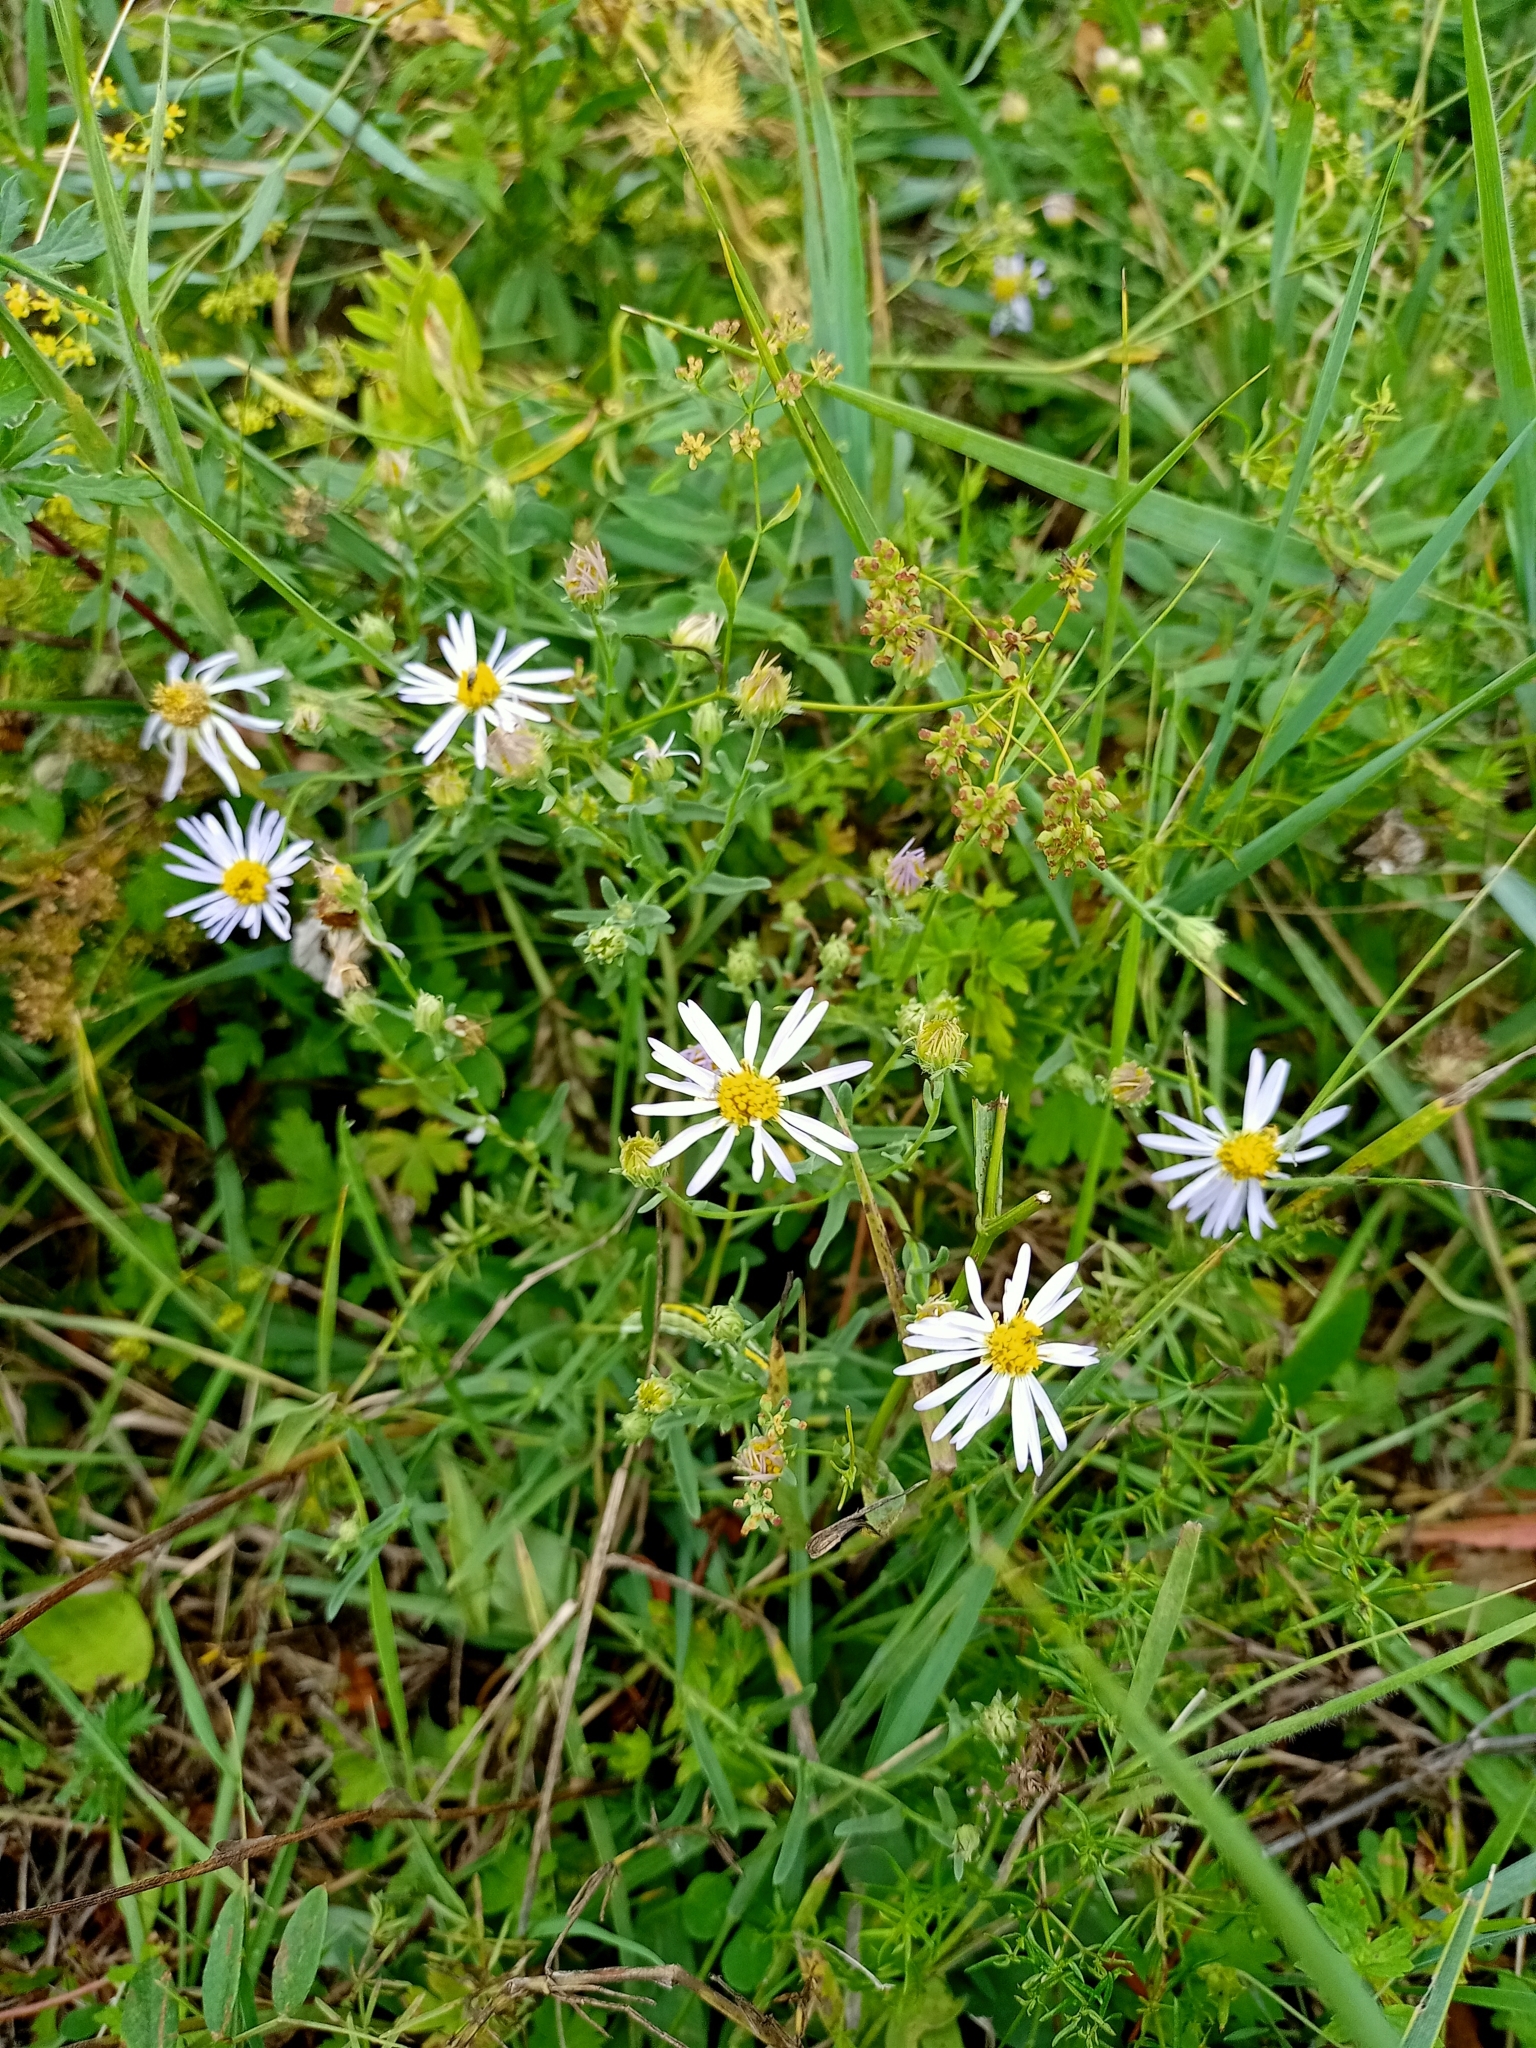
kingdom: Plantae
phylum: Tracheophyta
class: Magnoliopsida
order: Asterales
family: Asteraceae
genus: Heteropappus
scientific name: Heteropappus altaicus
